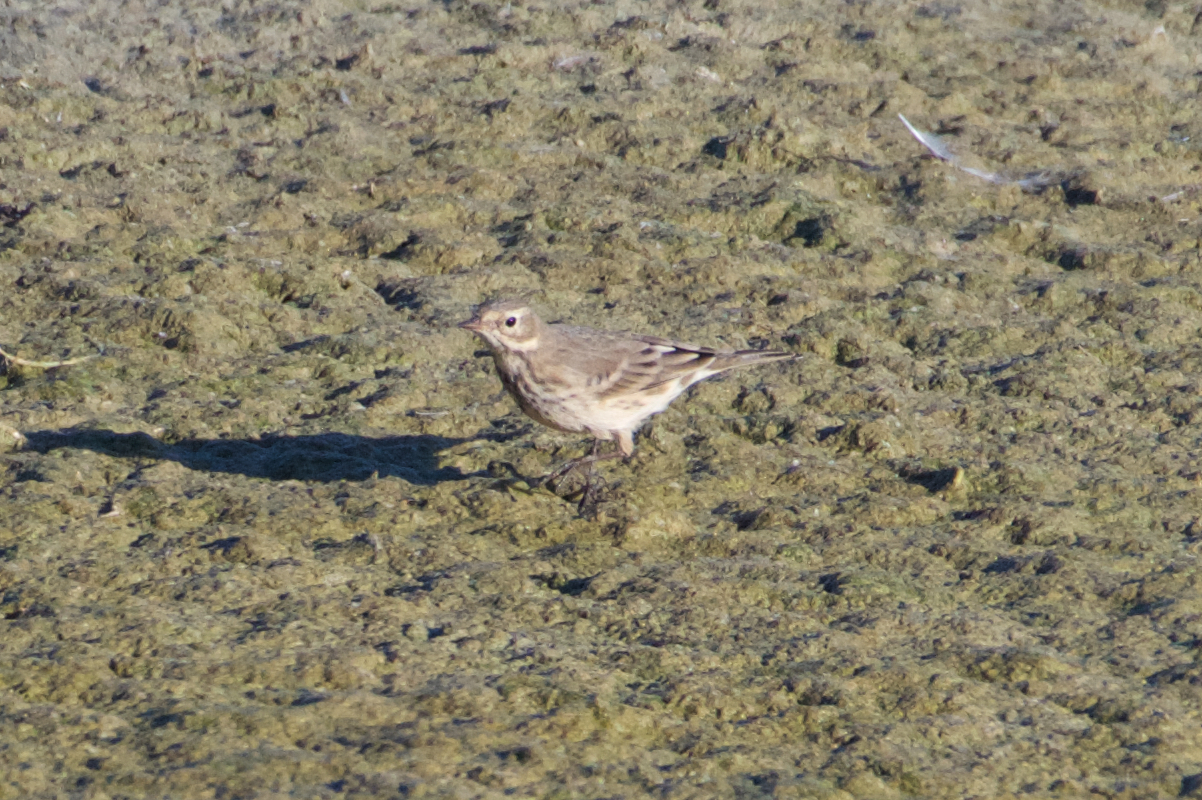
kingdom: Animalia
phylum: Chordata
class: Aves
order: Passeriformes
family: Motacillidae
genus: Anthus
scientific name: Anthus rubescens
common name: Buff-bellied pipit
